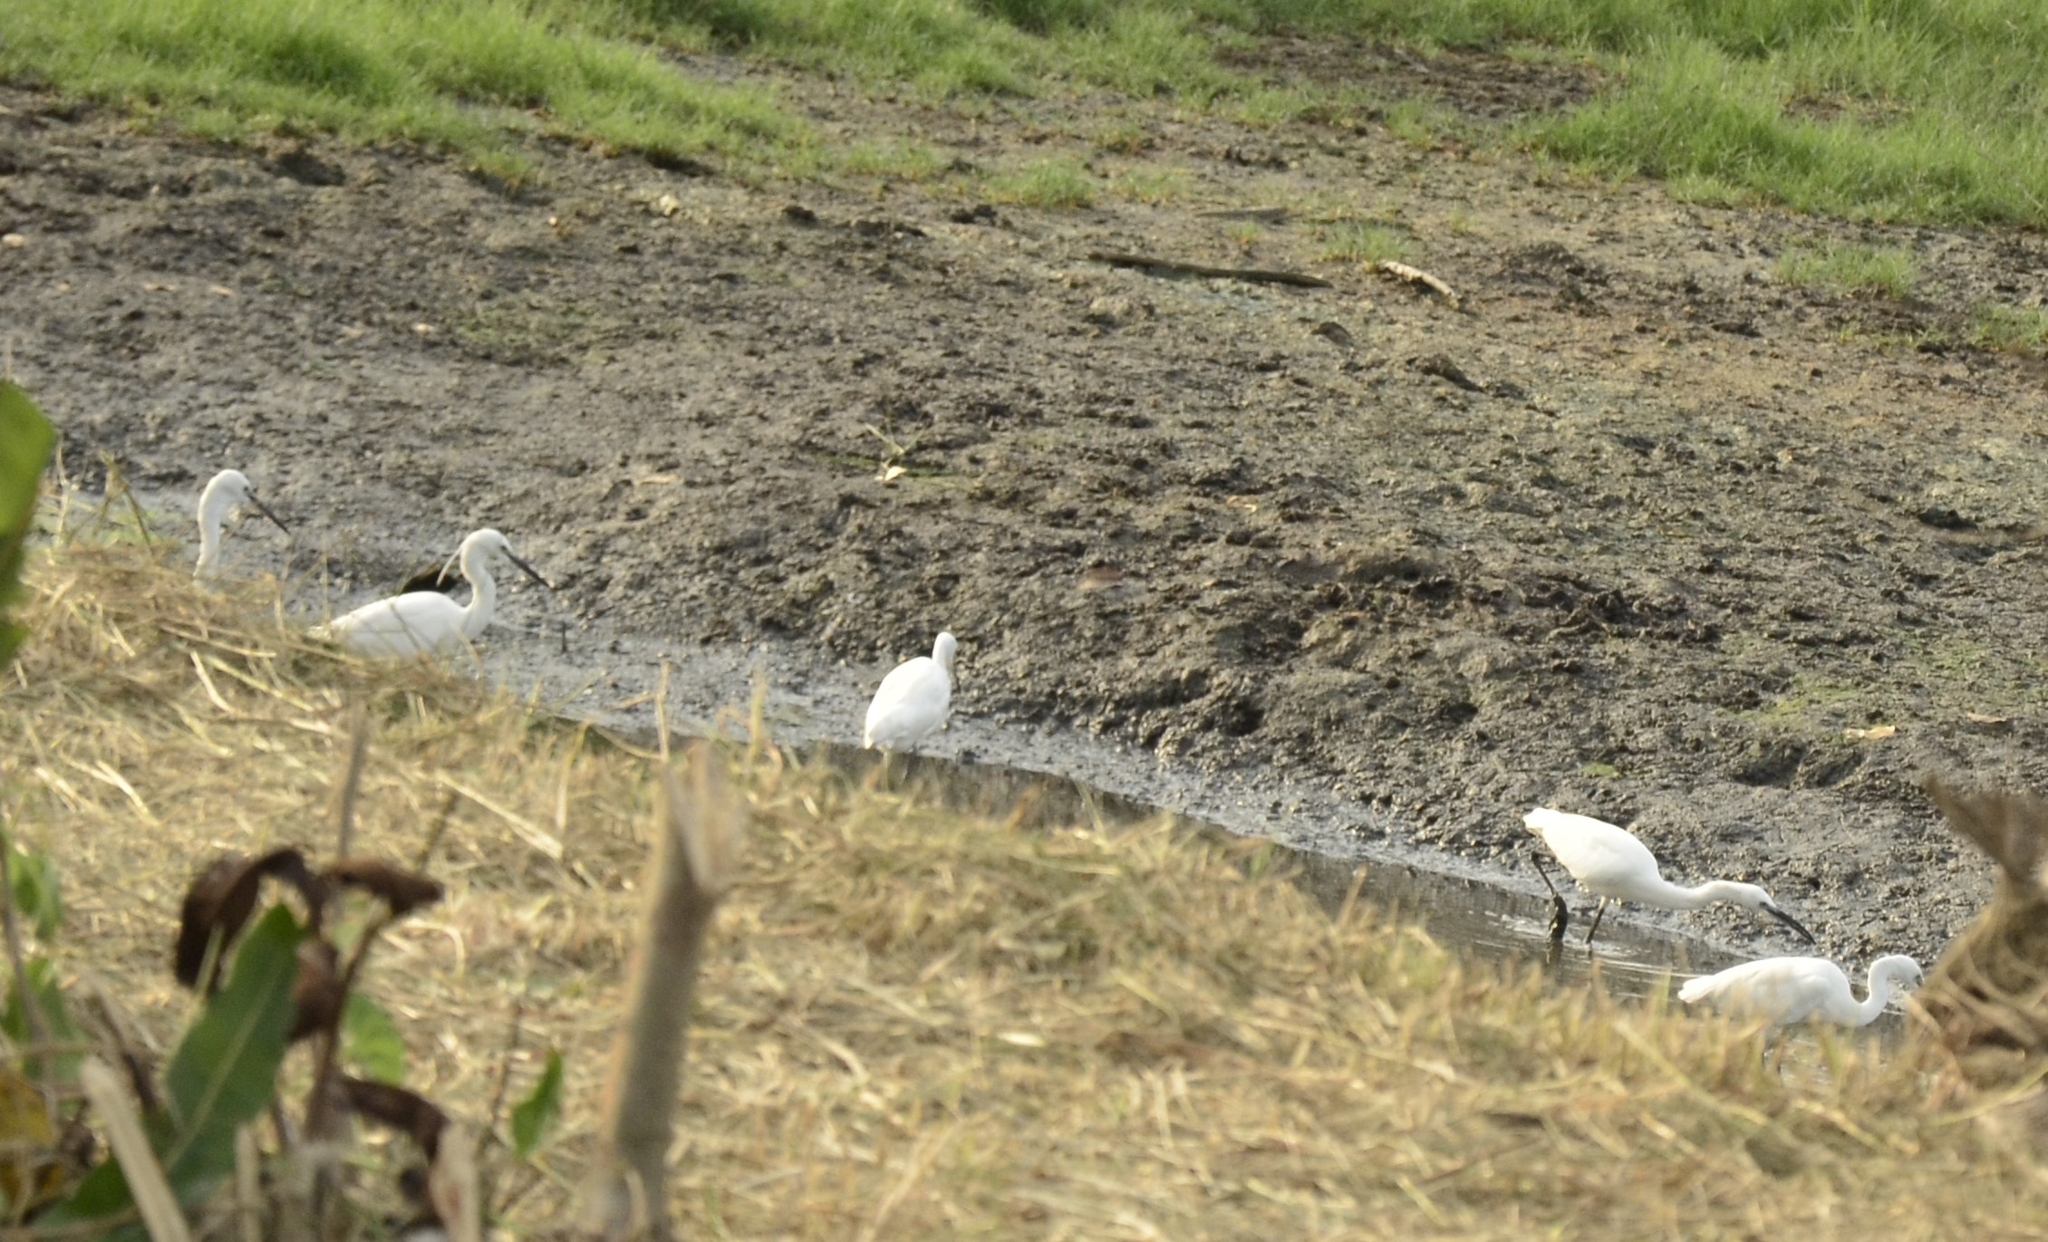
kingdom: Animalia
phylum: Chordata
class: Aves
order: Pelecaniformes
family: Ardeidae
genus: Egretta
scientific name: Egretta garzetta
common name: Little egret
